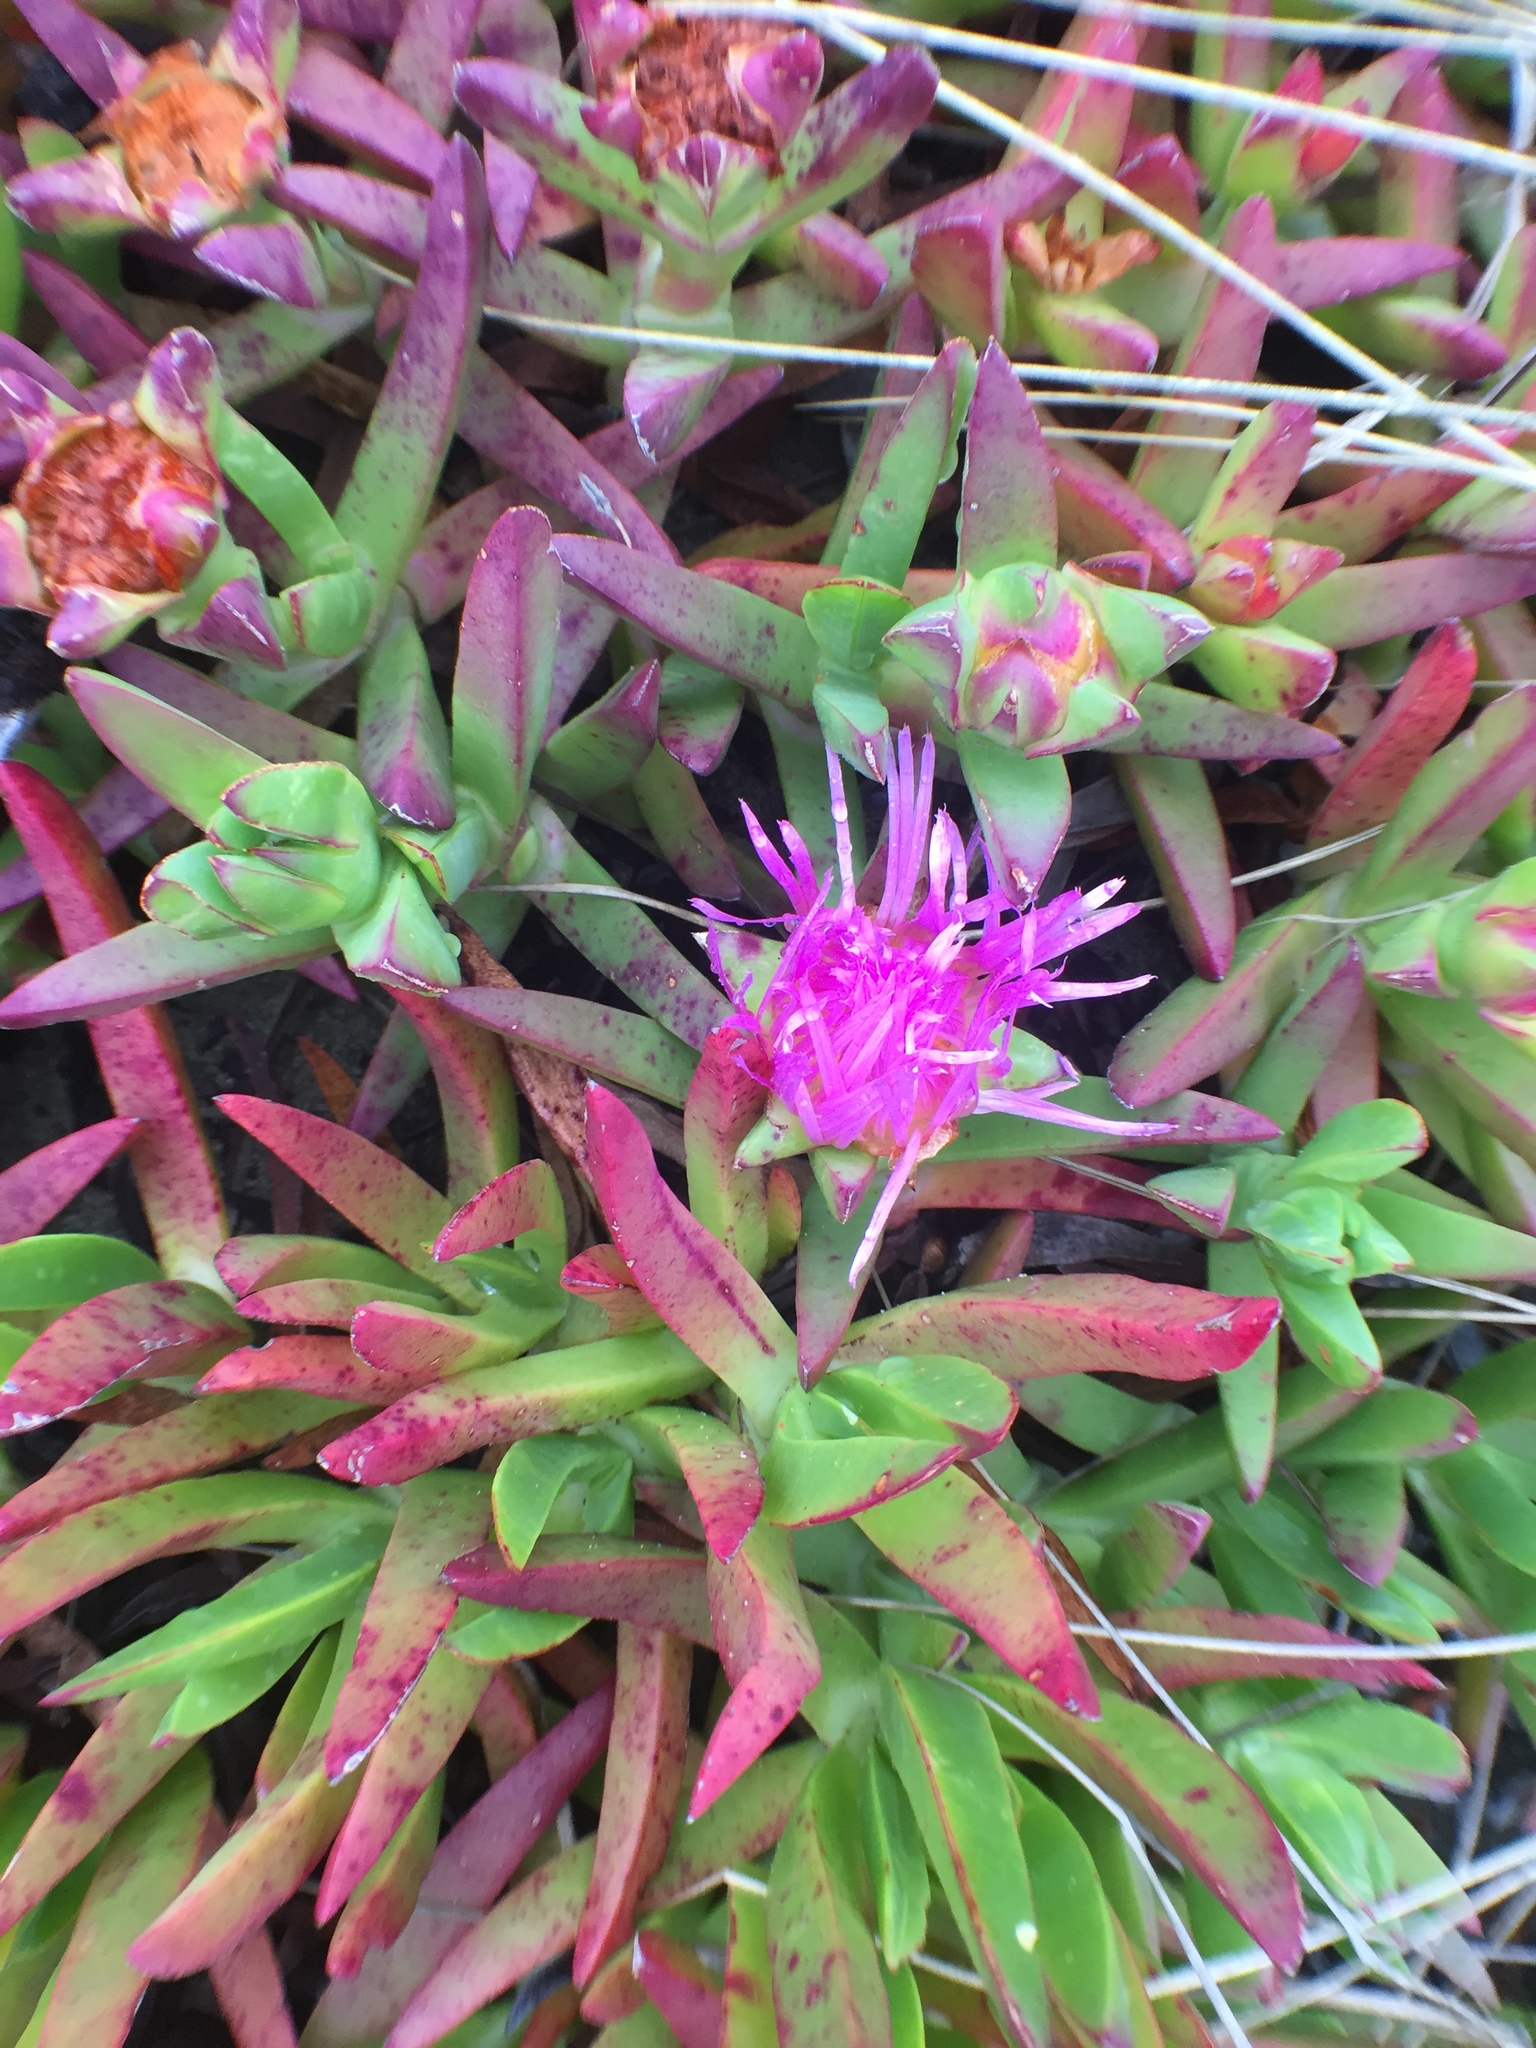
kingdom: Plantae
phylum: Tracheophyta
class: Magnoliopsida
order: Caryophyllales
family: Aizoaceae
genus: Carpobrotus
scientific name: Carpobrotus edulis
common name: Hottentot-fig
